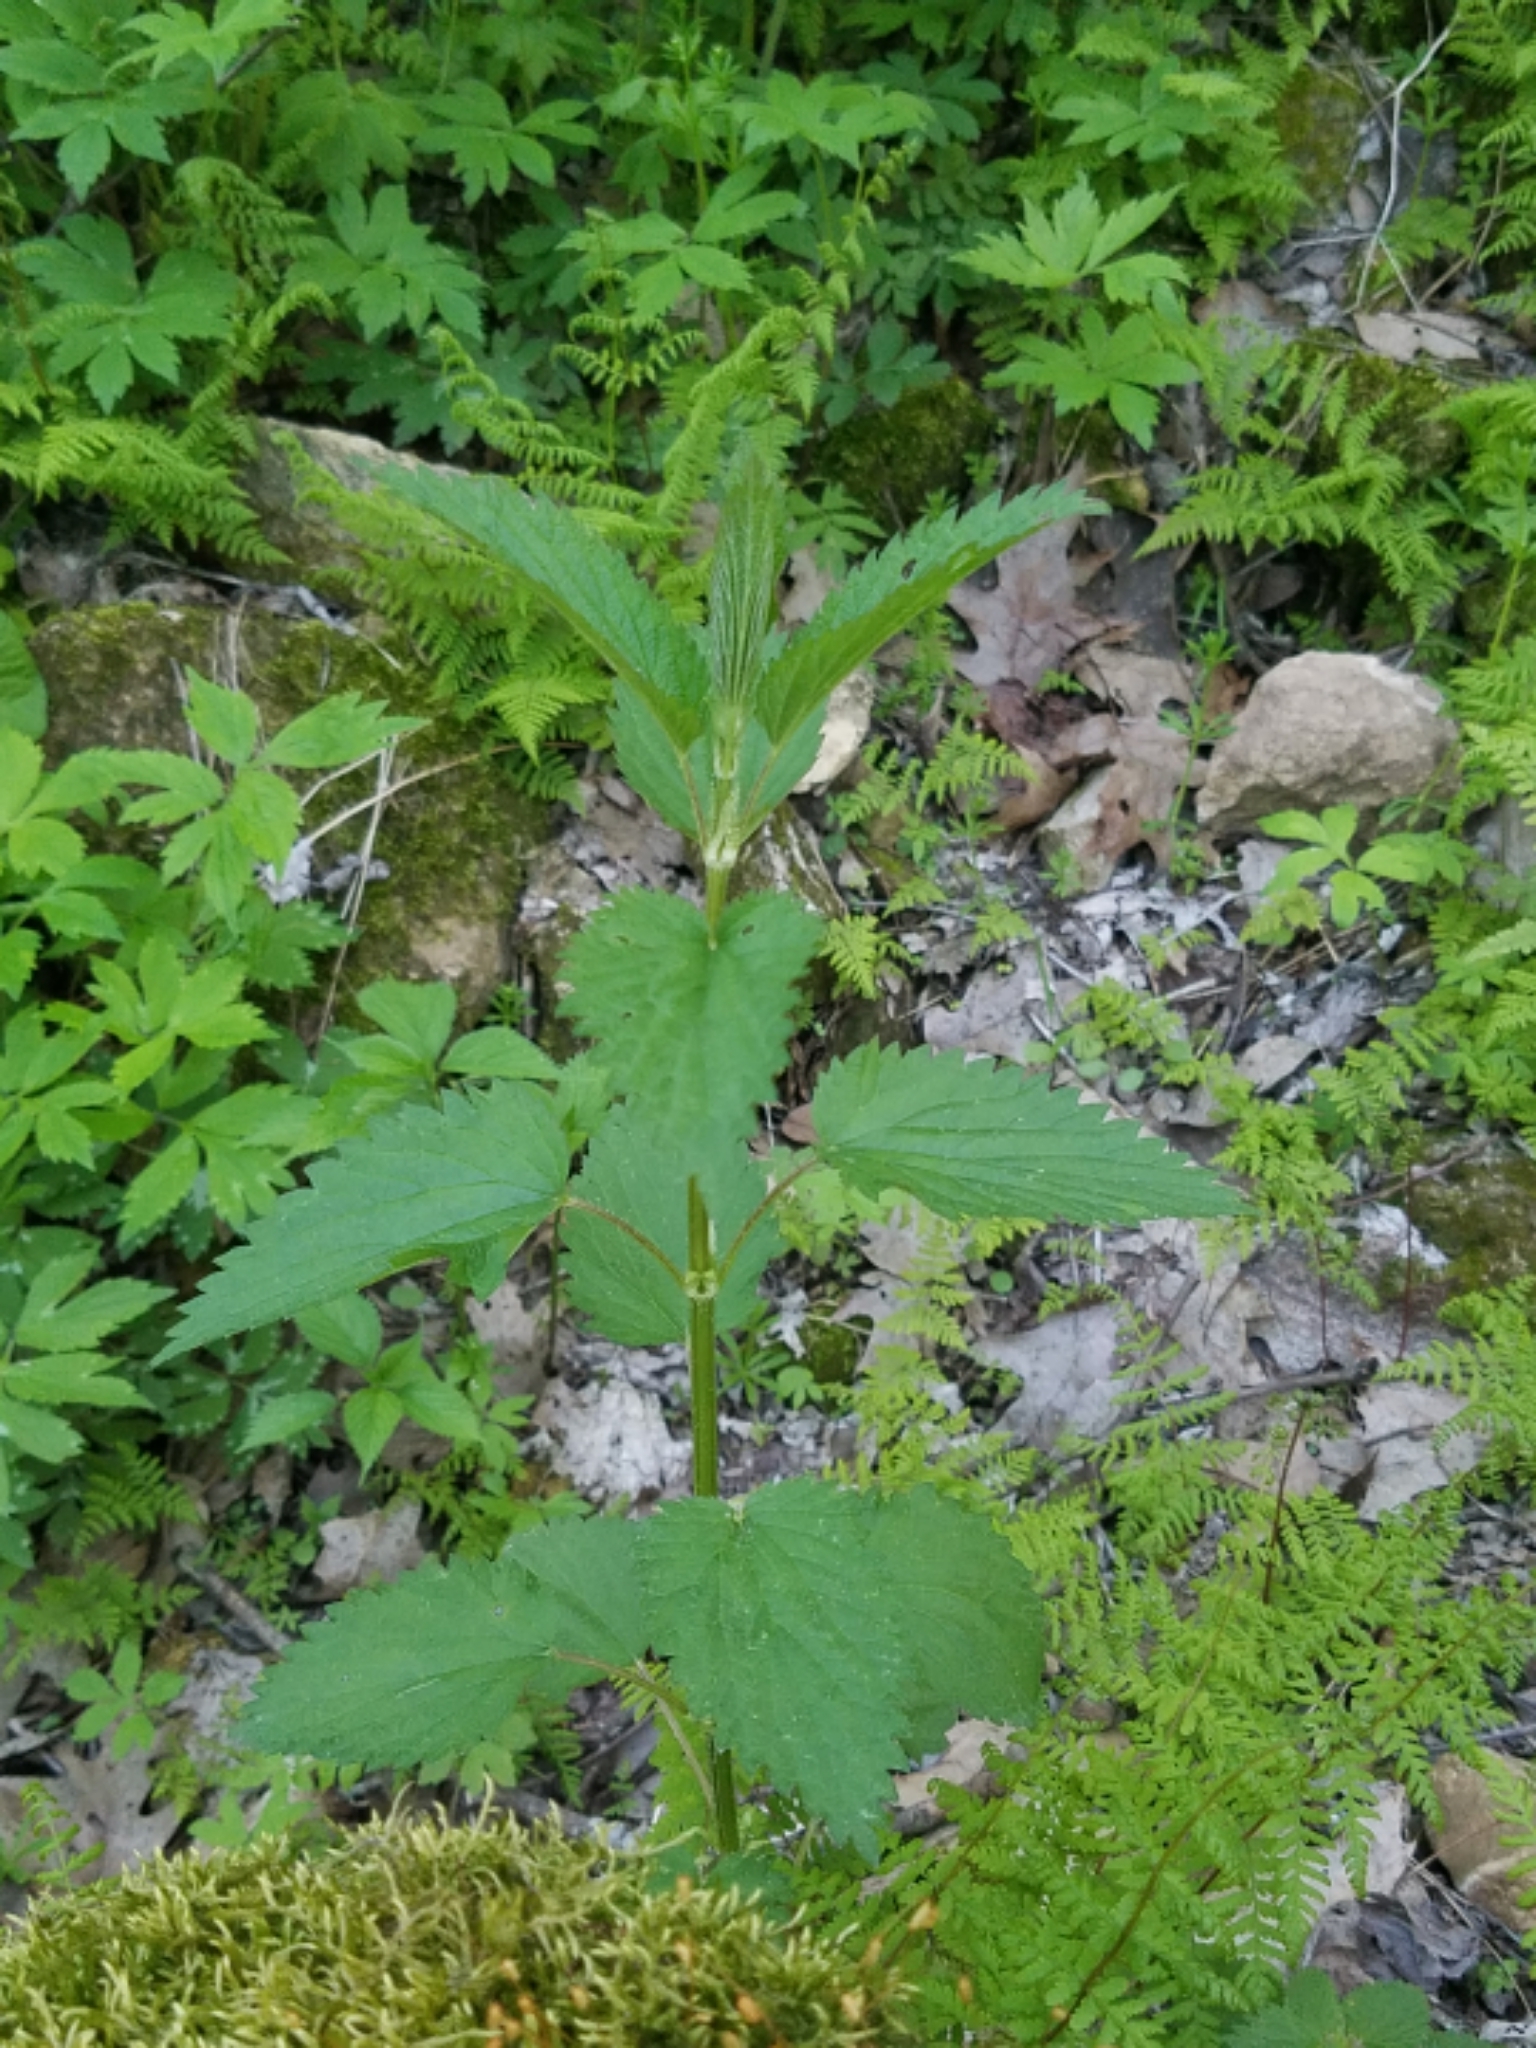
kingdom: Plantae
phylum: Tracheophyta
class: Magnoliopsida
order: Rosales
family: Urticaceae
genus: Urtica
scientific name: Urtica dioica
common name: Common nettle
